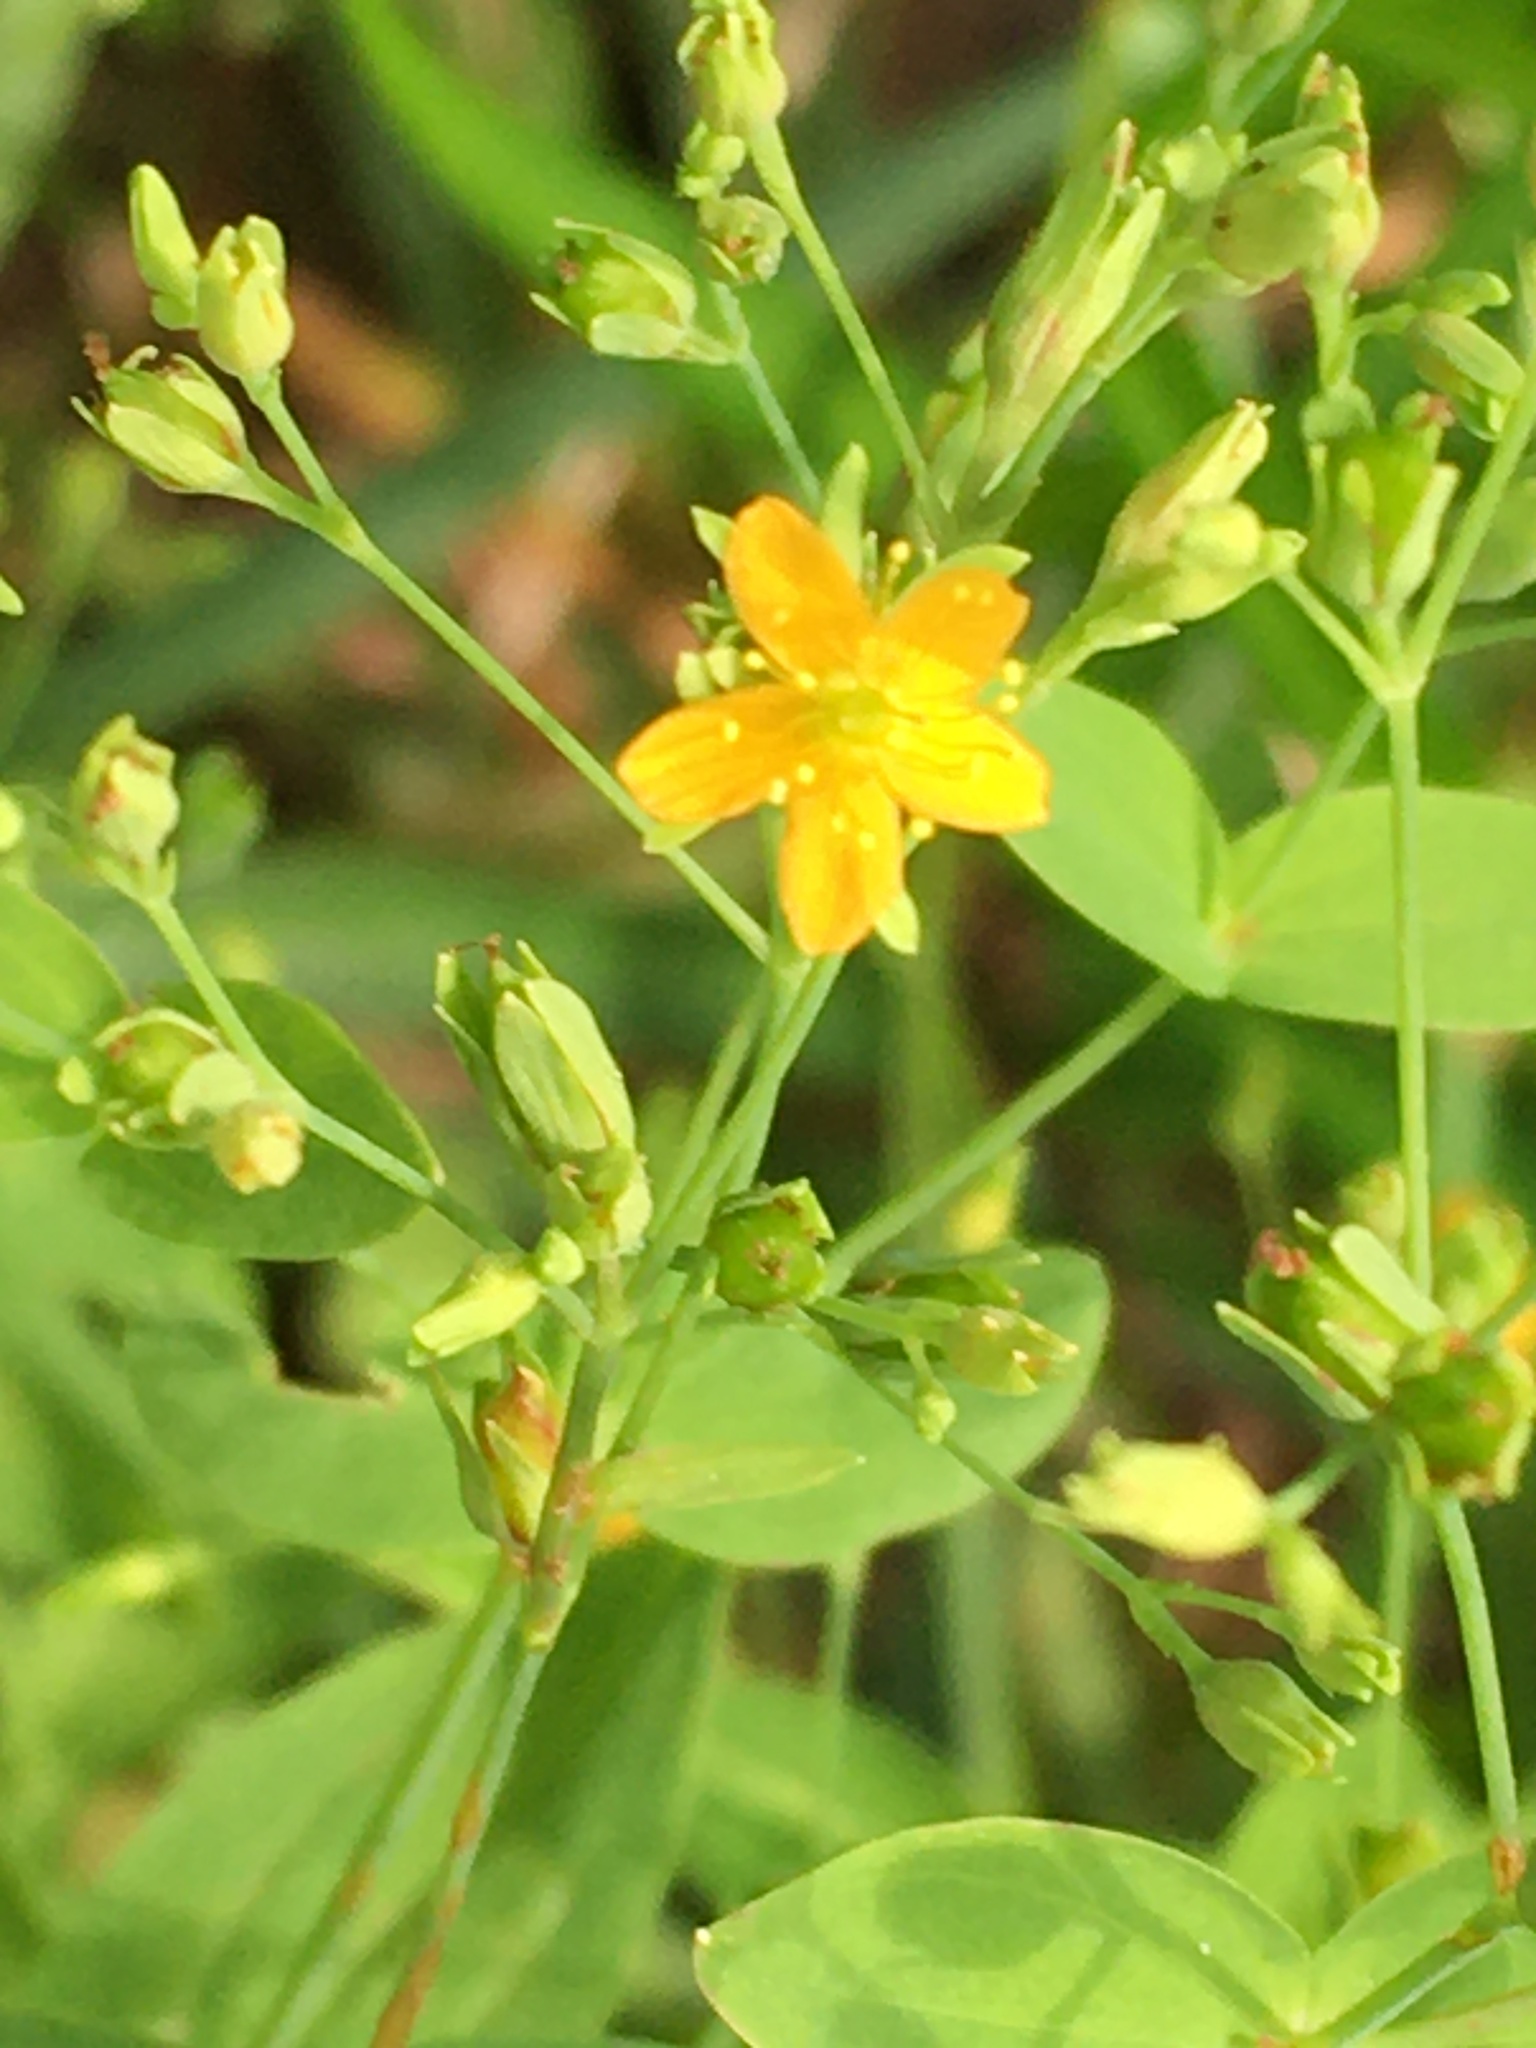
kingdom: Plantae
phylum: Tracheophyta
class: Magnoliopsida
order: Malpighiales
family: Hypericaceae
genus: Hypericum
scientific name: Hypericum mutilum
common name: Dwarf st. john's-wort
